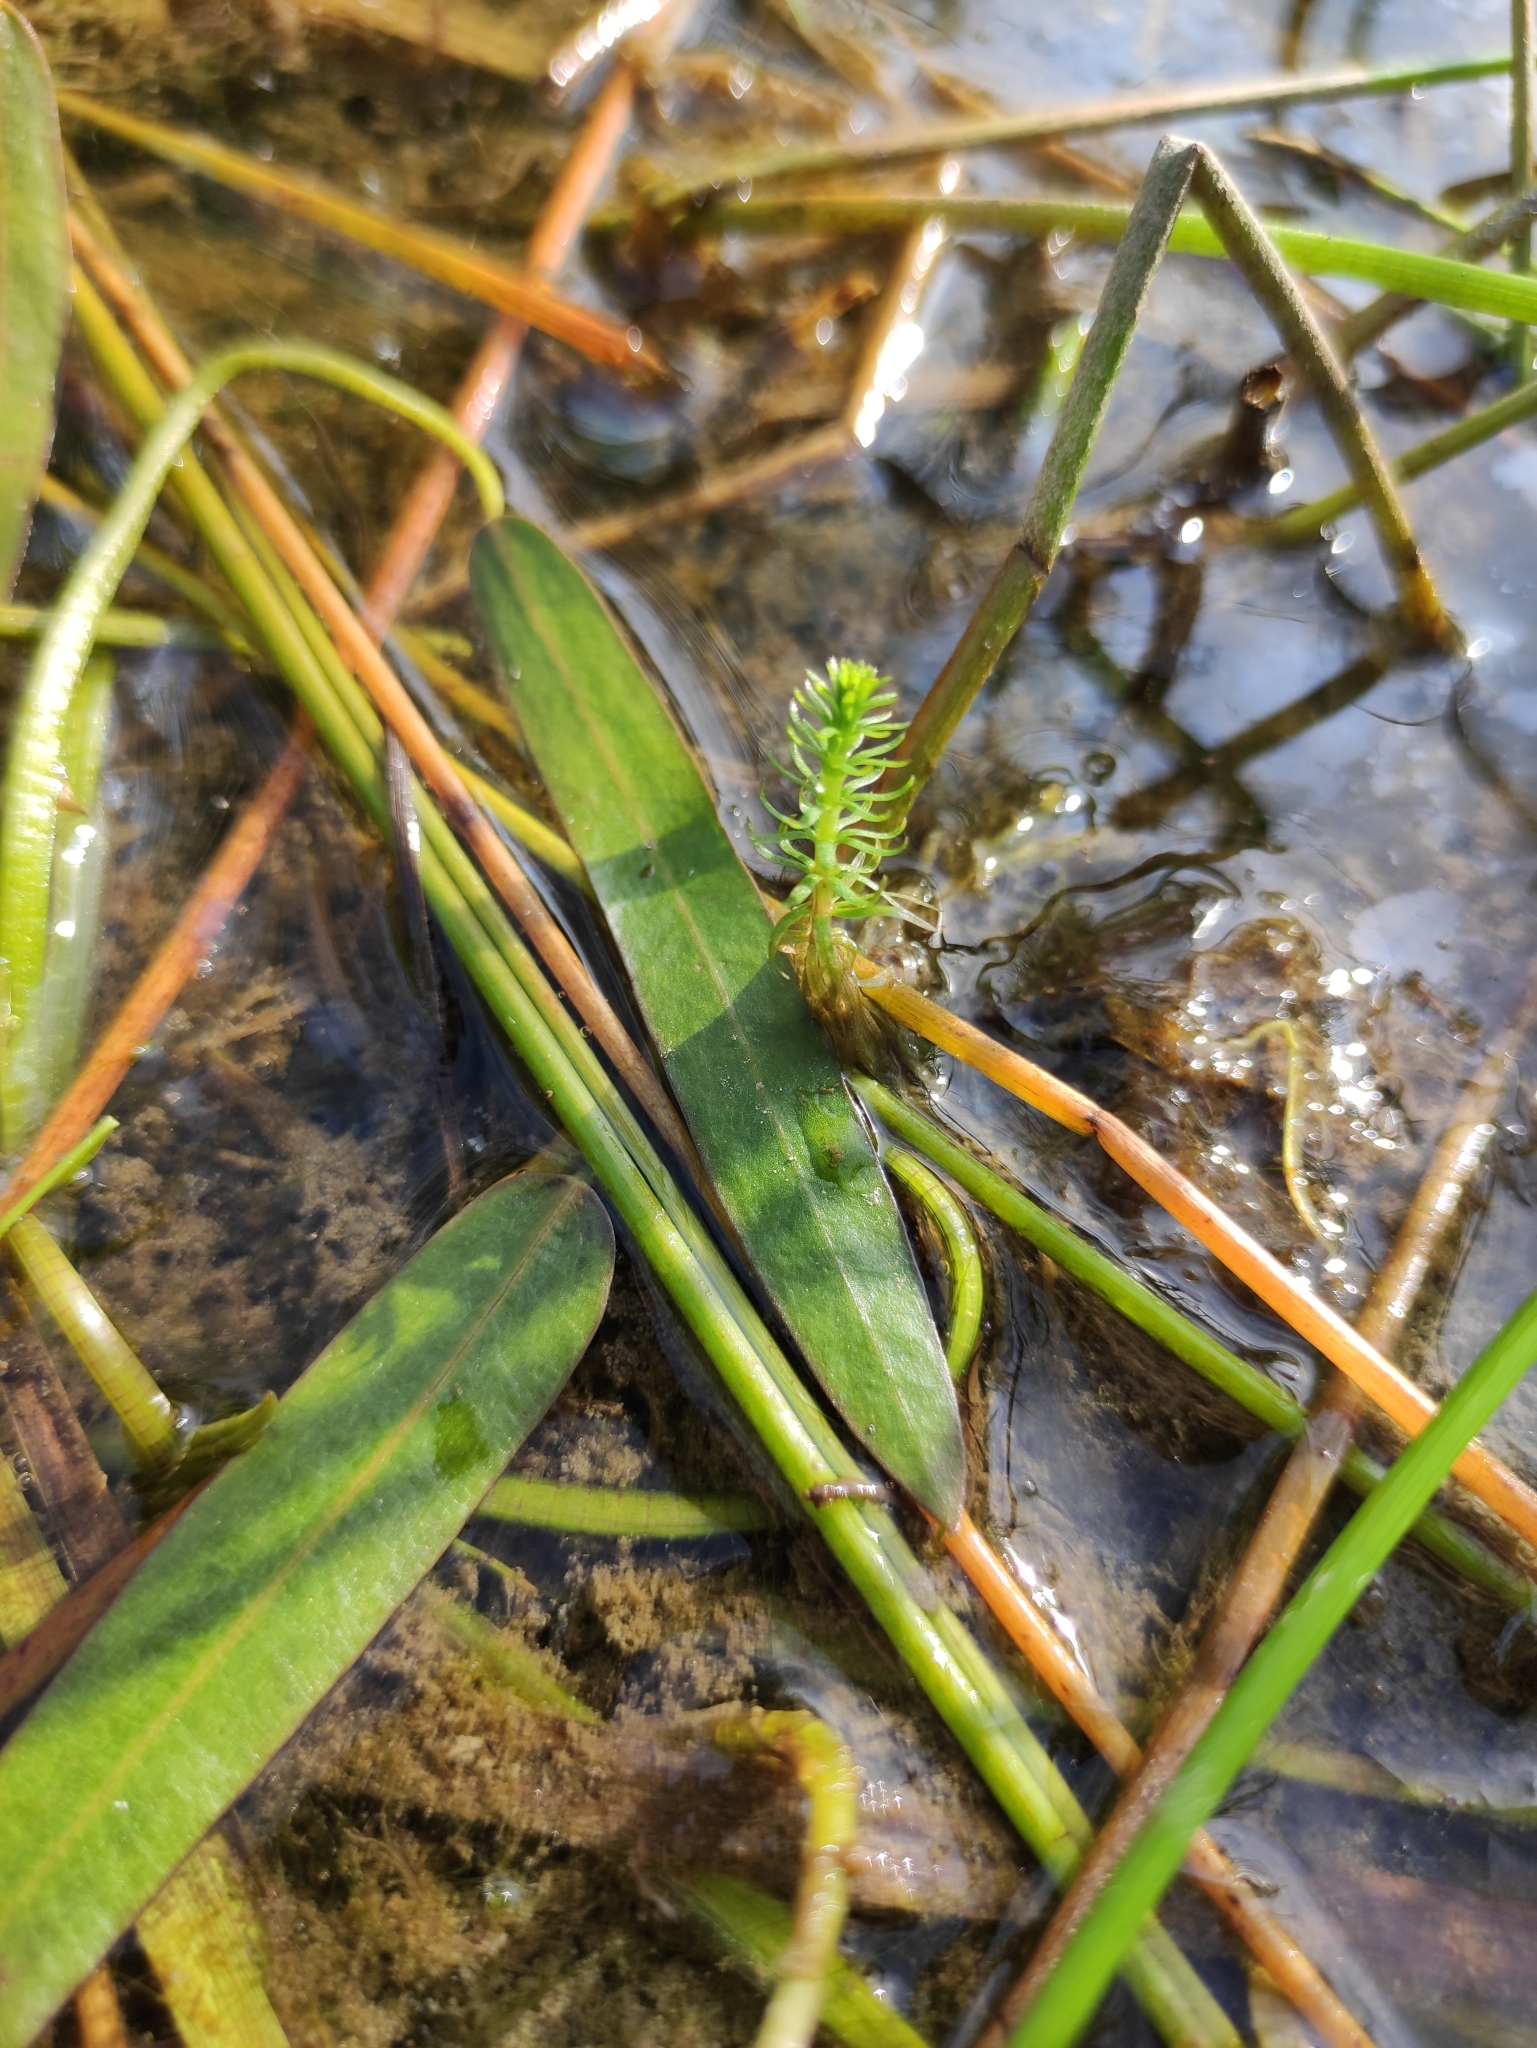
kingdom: Plantae
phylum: Tracheophyta
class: Magnoliopsida
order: Lamiales
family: Plantaginaceae
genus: Hippuris
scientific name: Hippuris vulgaris
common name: Mare's-tail
